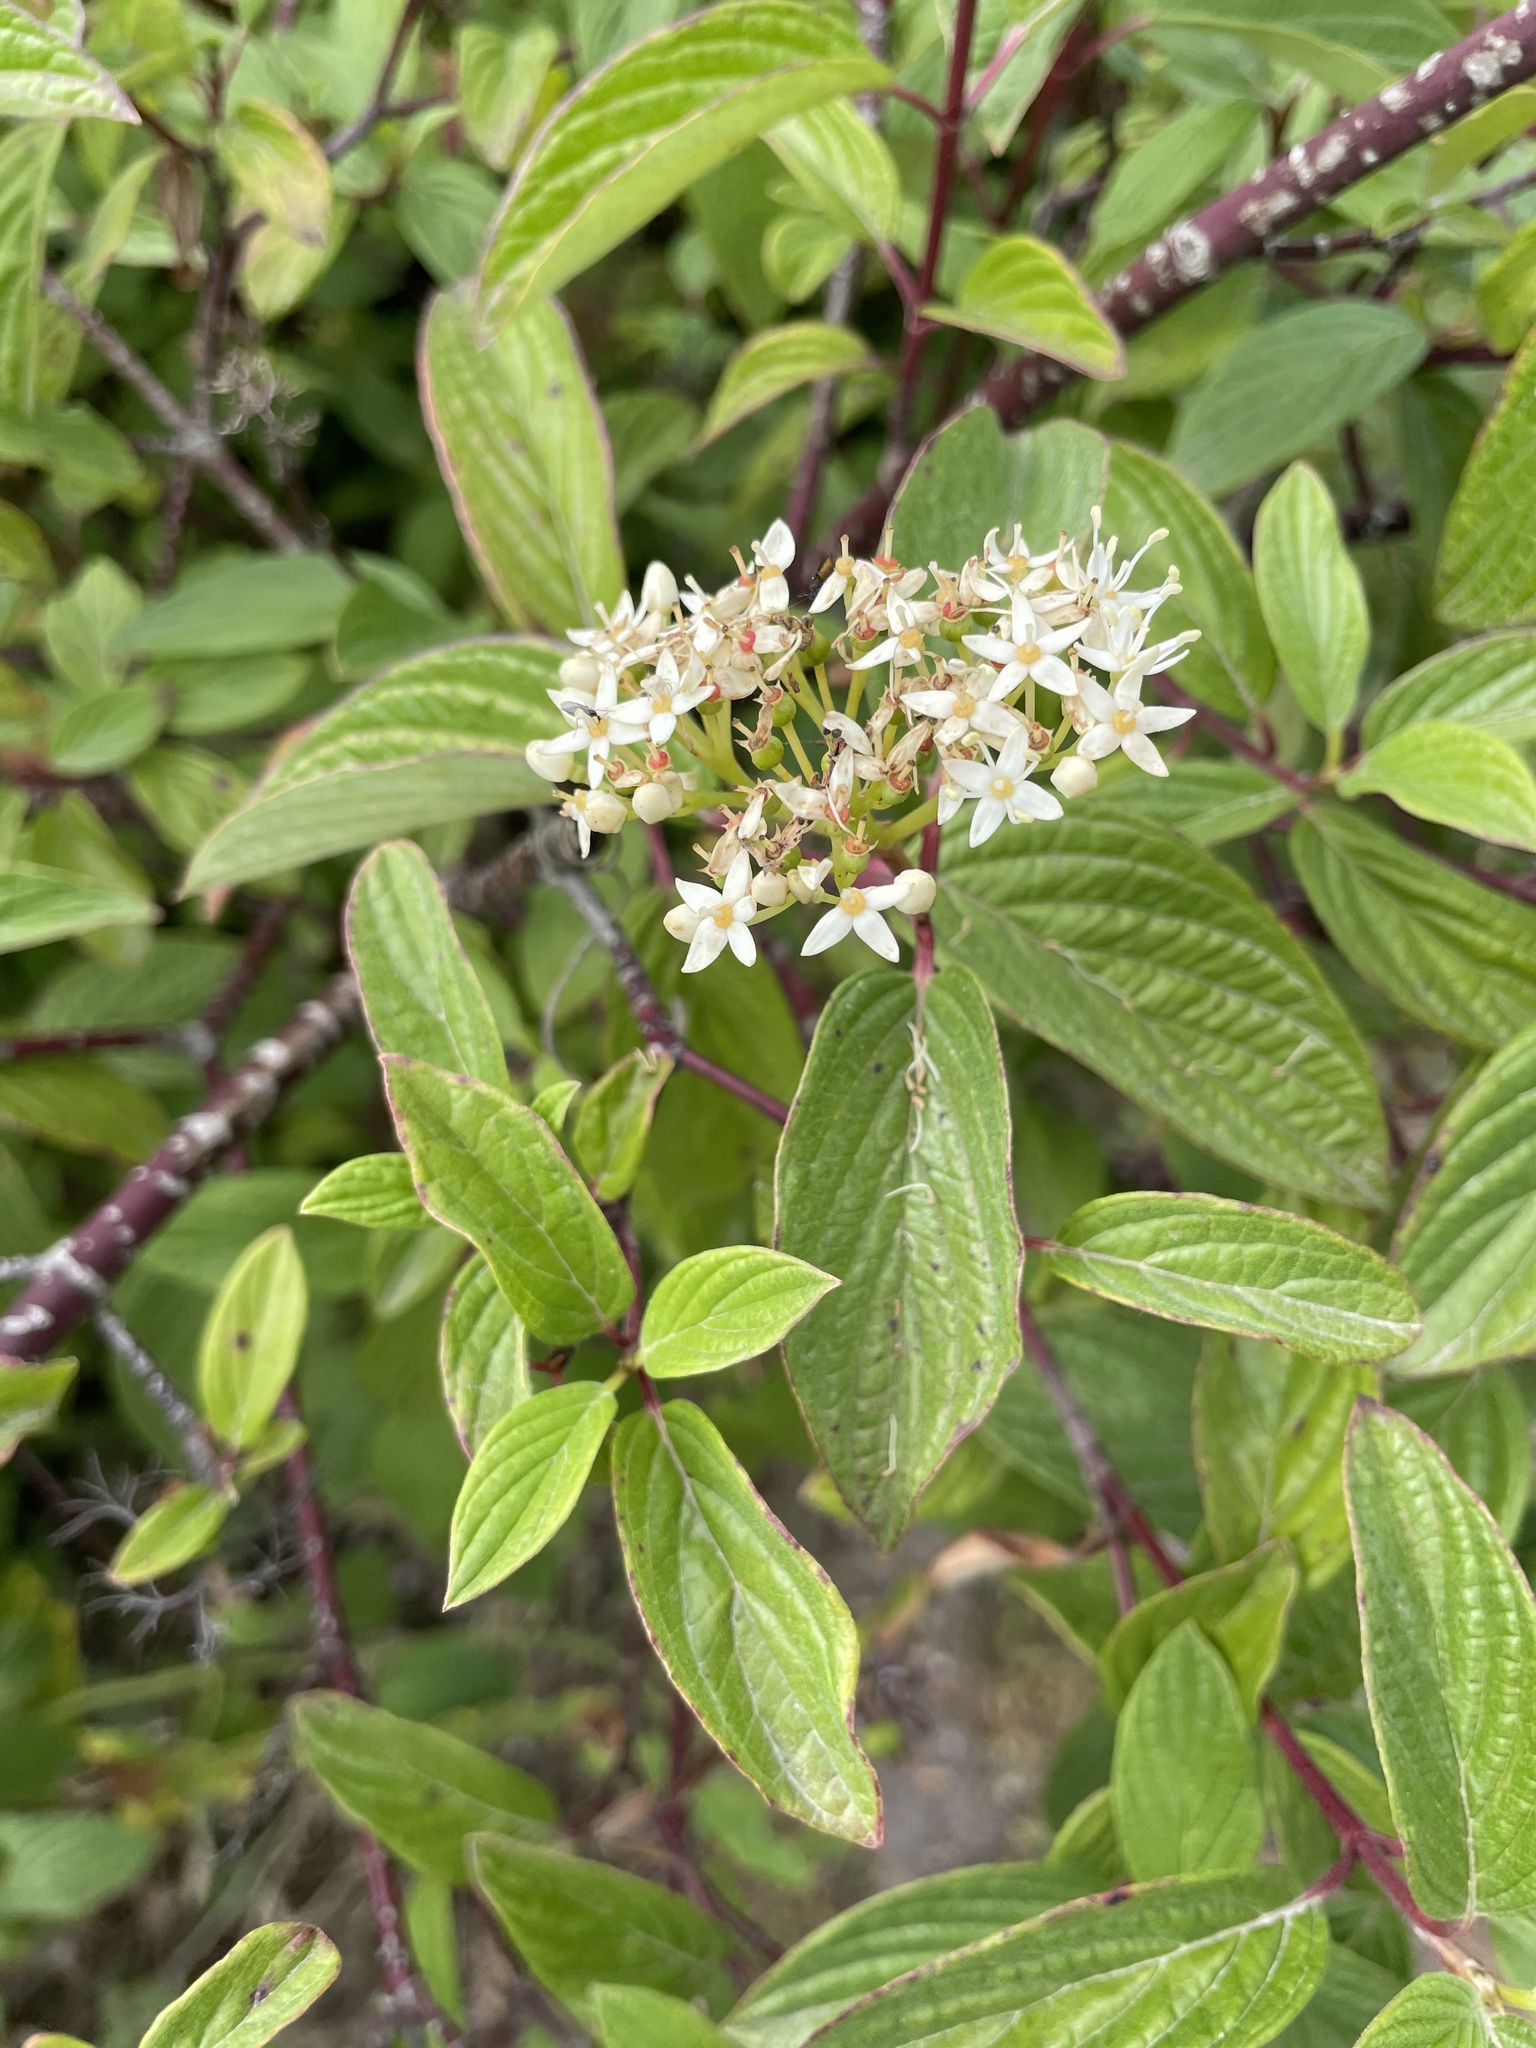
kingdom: Plantae
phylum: Tracheophyta
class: Magnoliopsida
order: Cornales
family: Cornaceae
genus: Cornus
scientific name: Cornus sericea
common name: Red-osier dogwood
